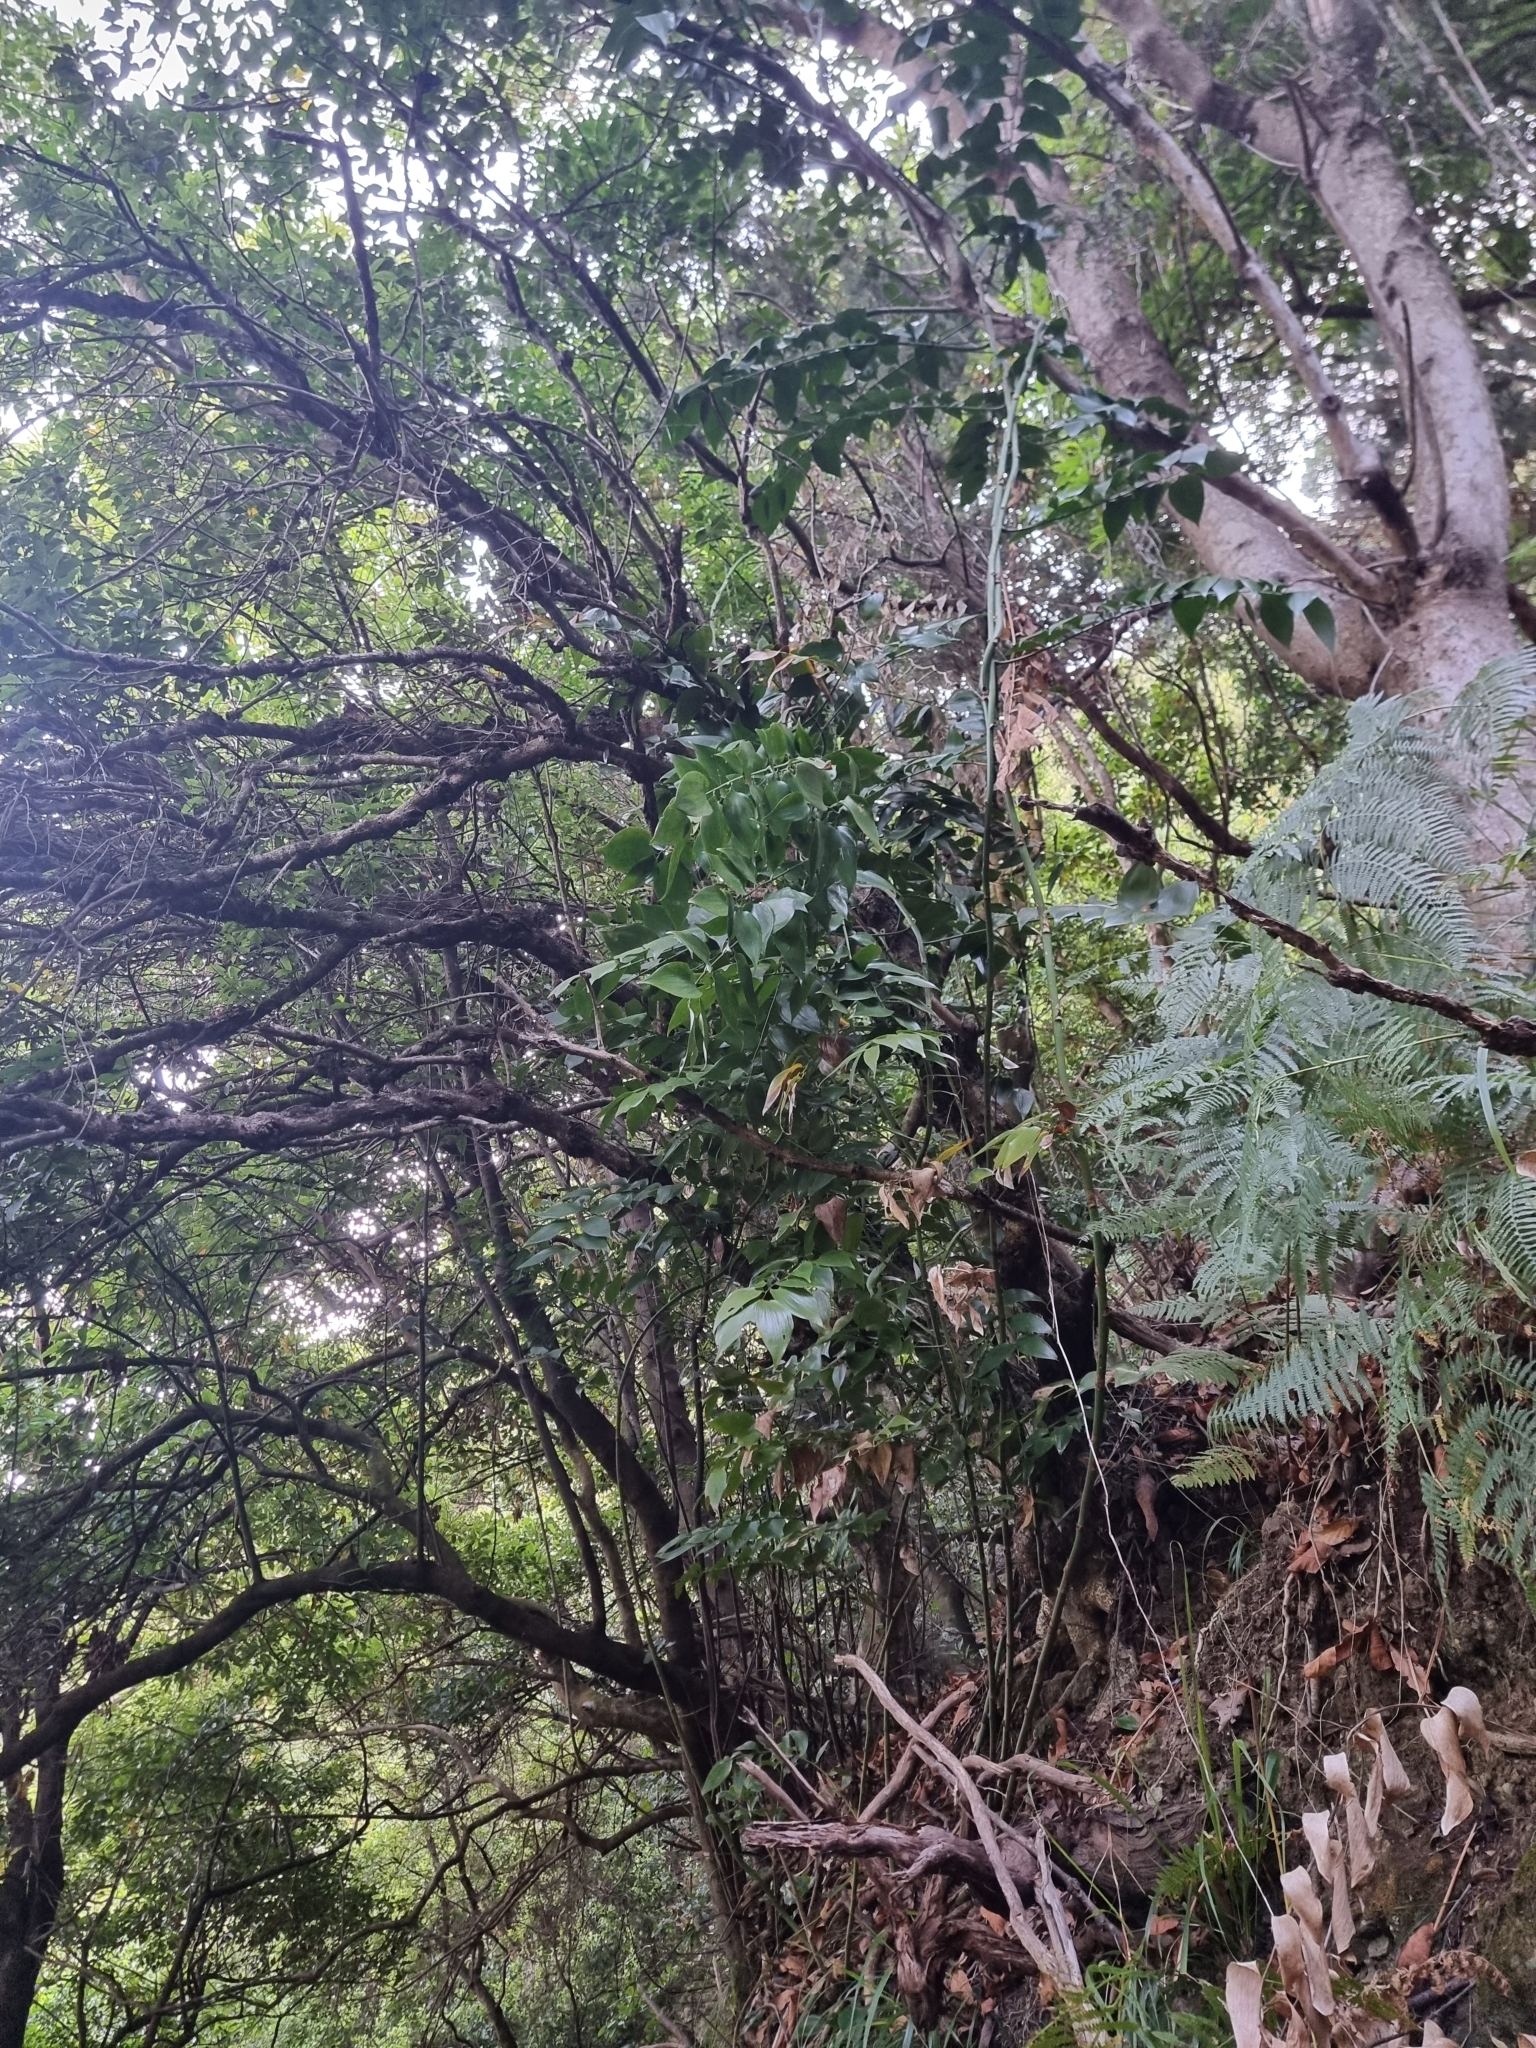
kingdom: Plantae
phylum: Tracheophyta
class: Liliopsida
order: Asparagales
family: Asparagaceae
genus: Semele
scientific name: Semele androgyna
